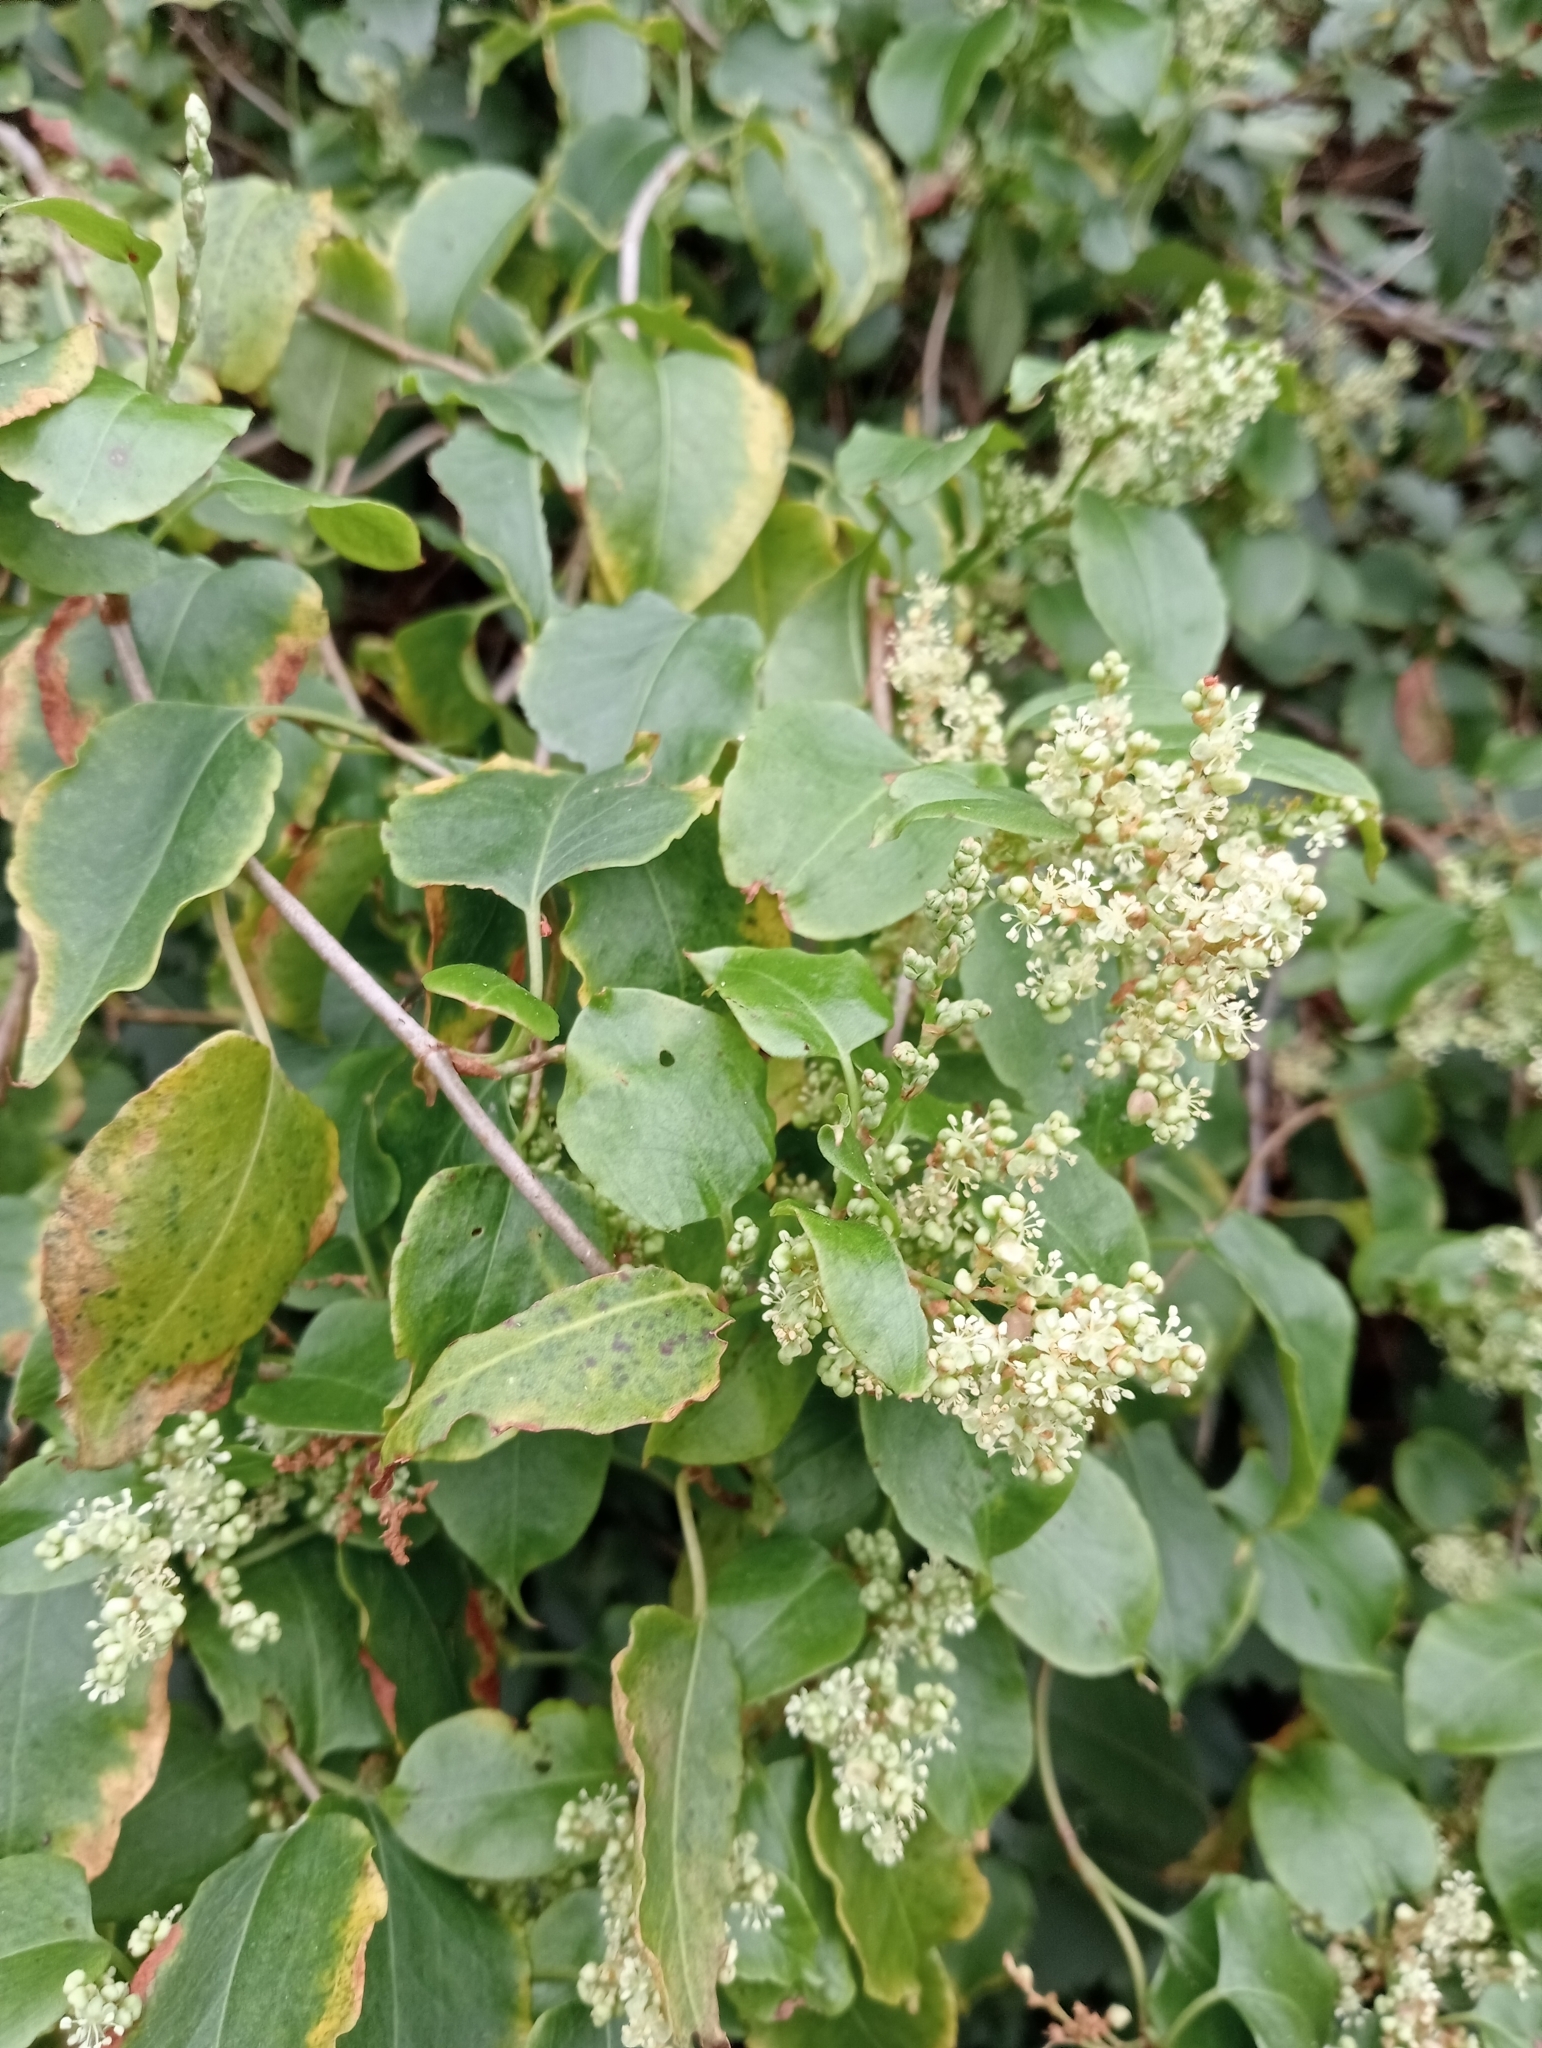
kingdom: Plantae
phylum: Tracheophyta
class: Magnoliopsida
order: Caryophyllales
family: Polygonaceae
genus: Muehlenbeckia
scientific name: Muehlenbeckia australis
